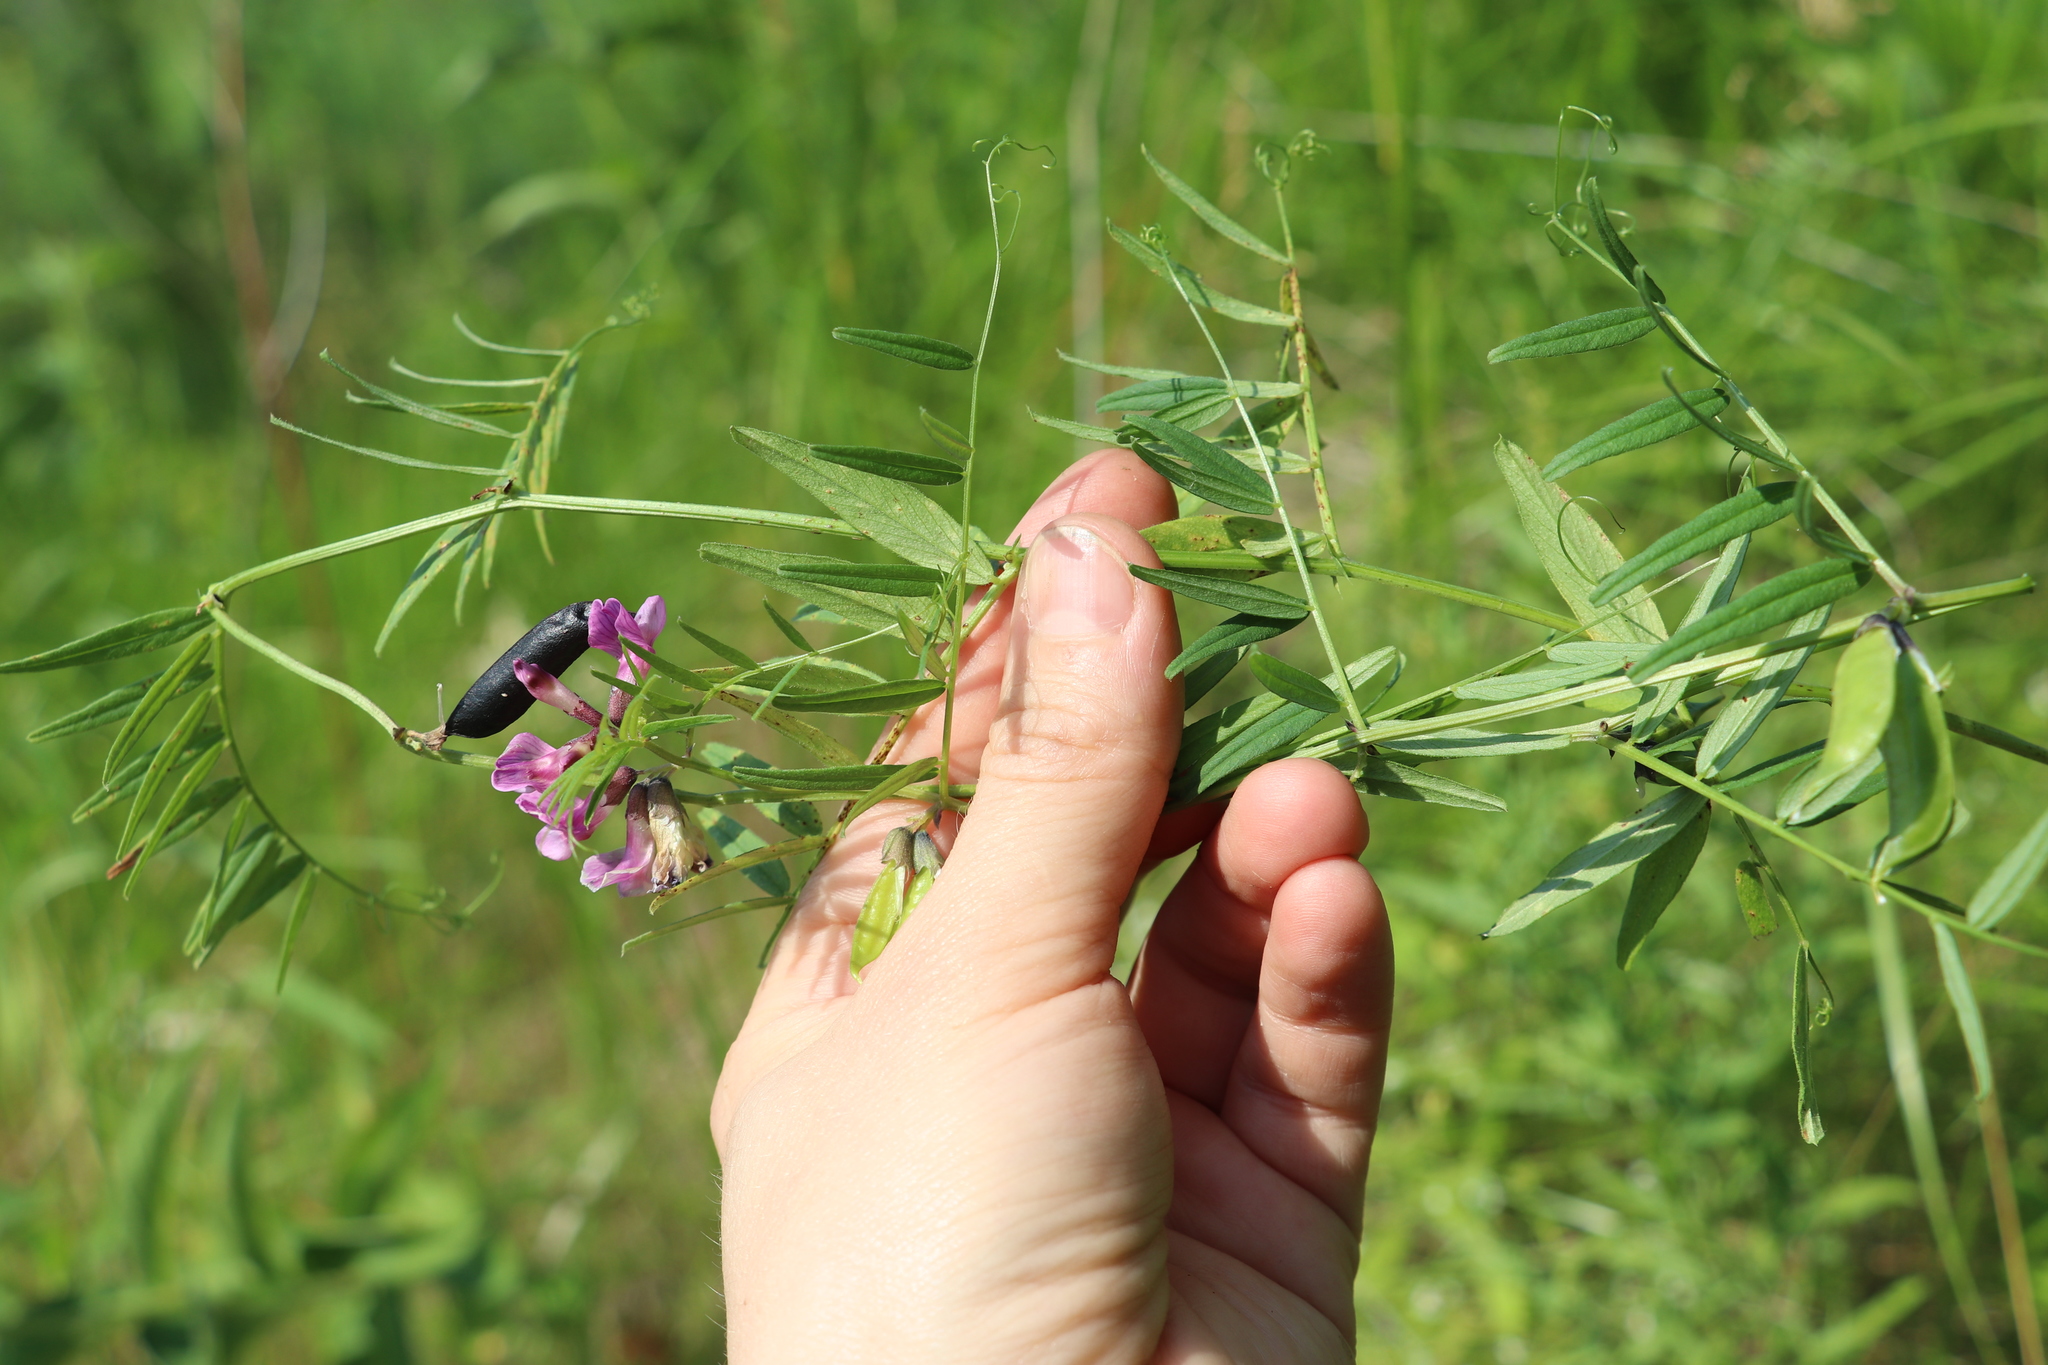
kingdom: Plantae
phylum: Tracheophyta
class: Magnoliopsida
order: Fabales
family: Fabaceae
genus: Vicia
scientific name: Vicia sepium
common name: Bush vetch
